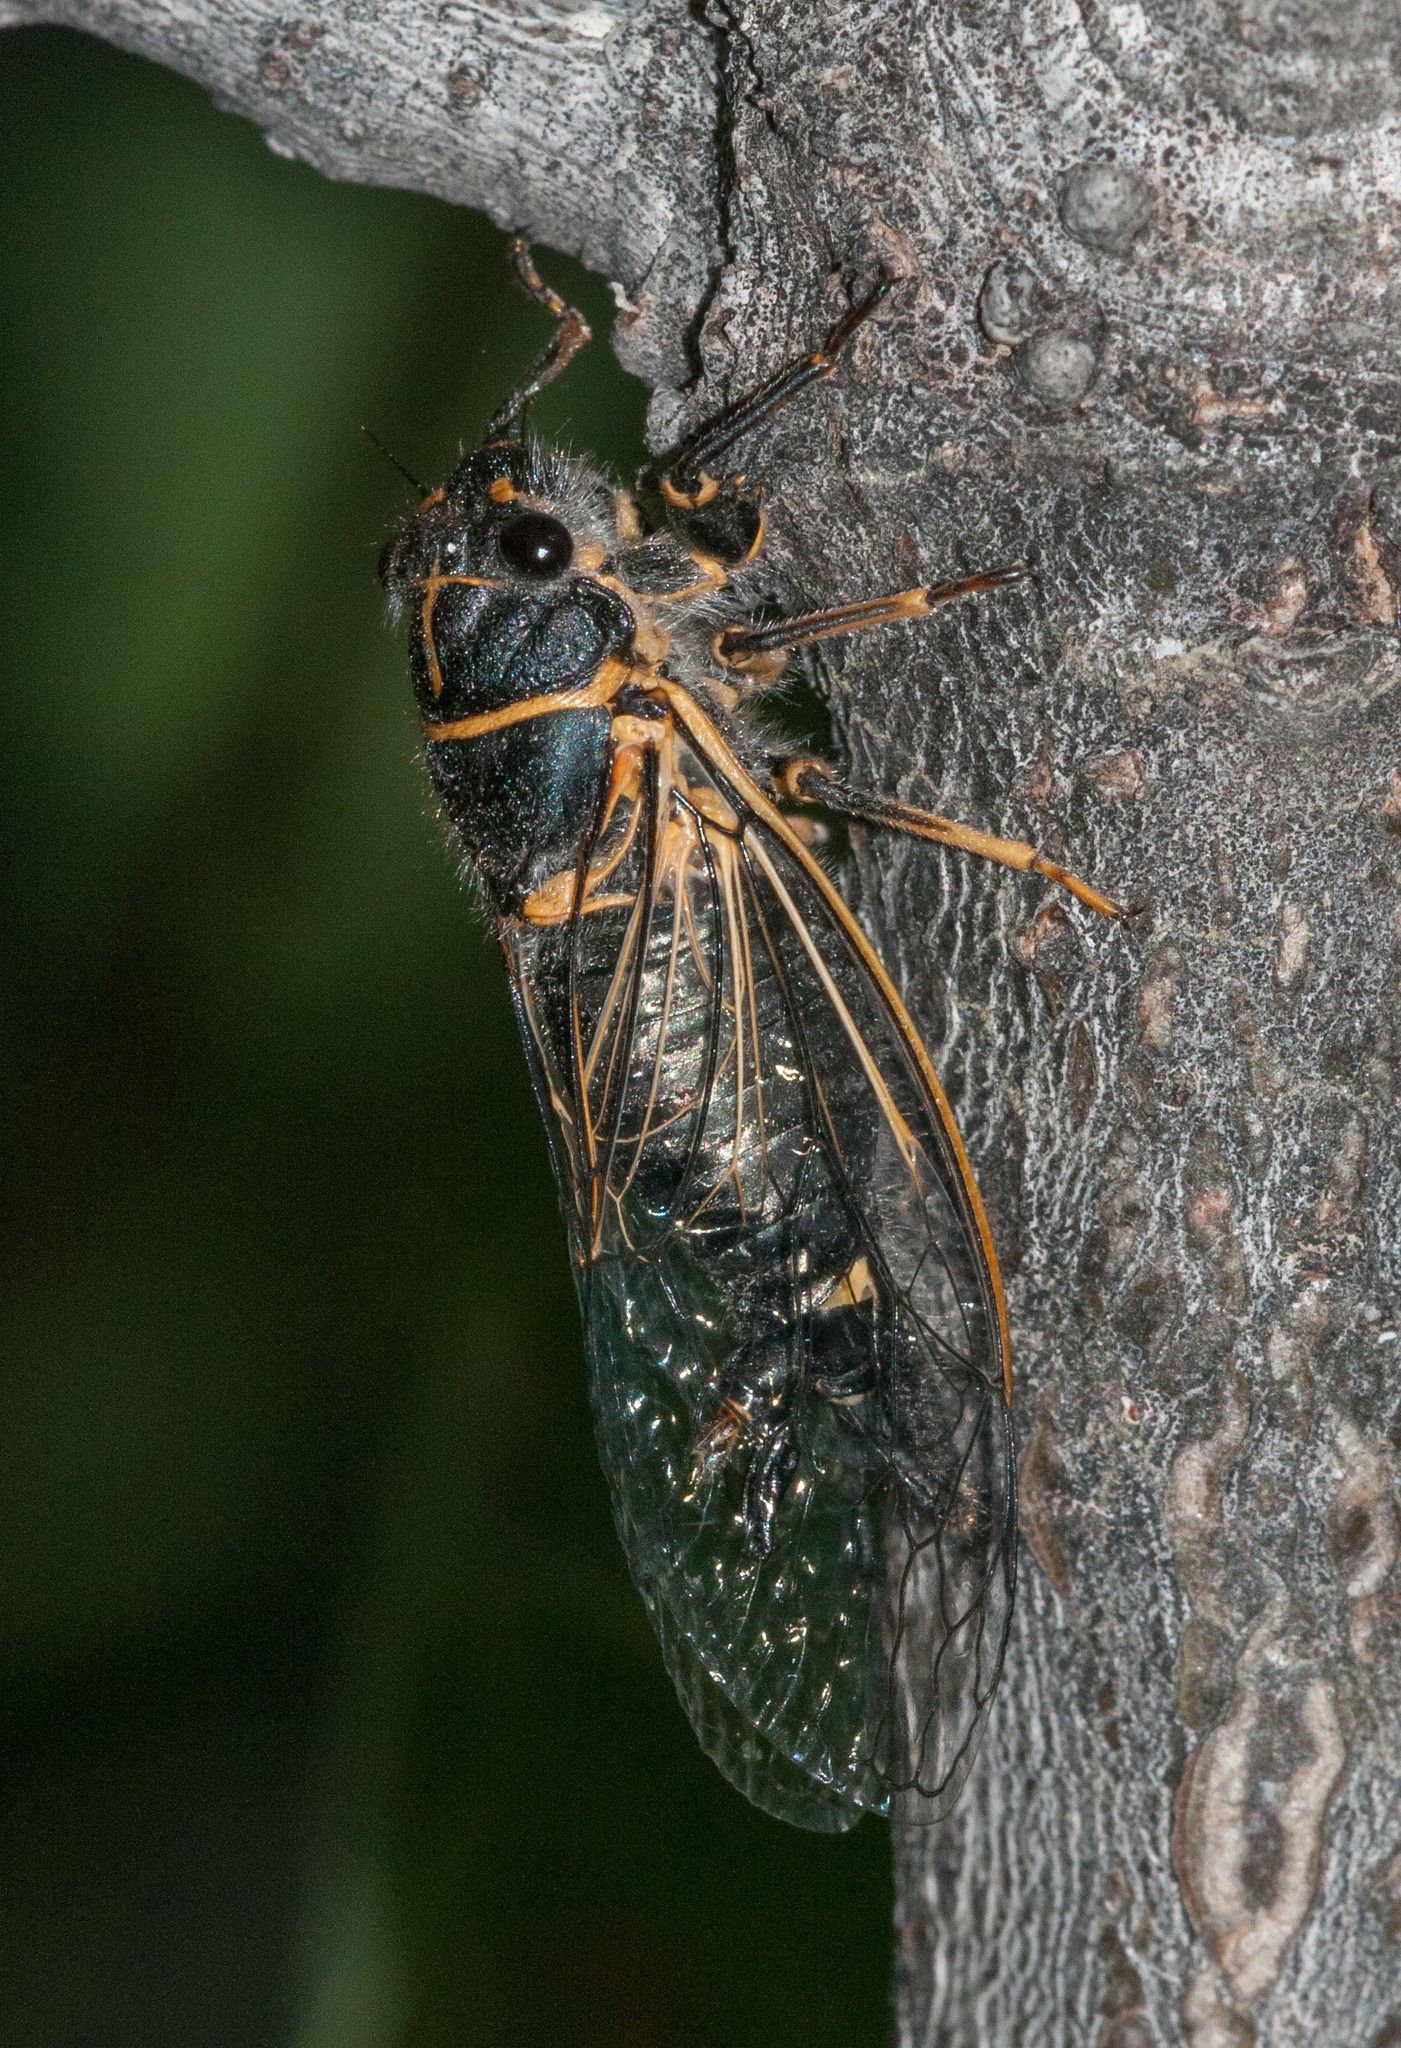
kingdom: Animalia
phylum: Arthropoda
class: Insecta
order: Hemiptera
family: Cicadidae
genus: Platypedia
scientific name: Platypedia putnami
